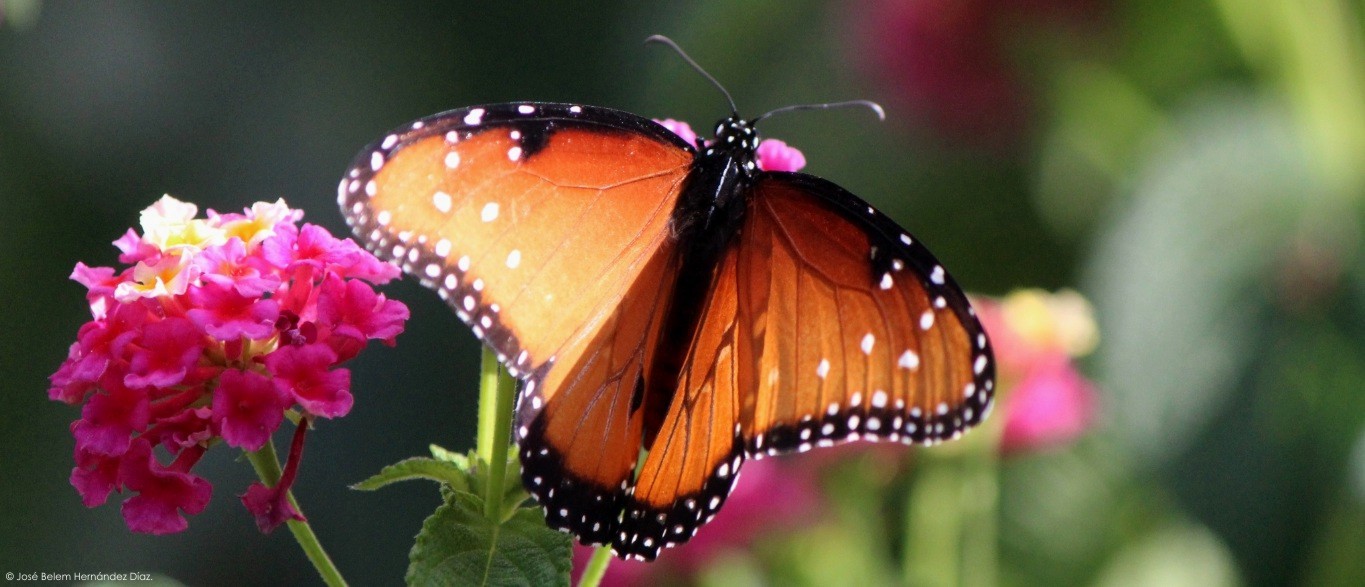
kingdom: Animalia
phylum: Arthropoda
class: Insecta
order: Lepidoptera
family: Nymphalidae
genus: Danaus
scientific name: Danaus gilippus
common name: Queen
